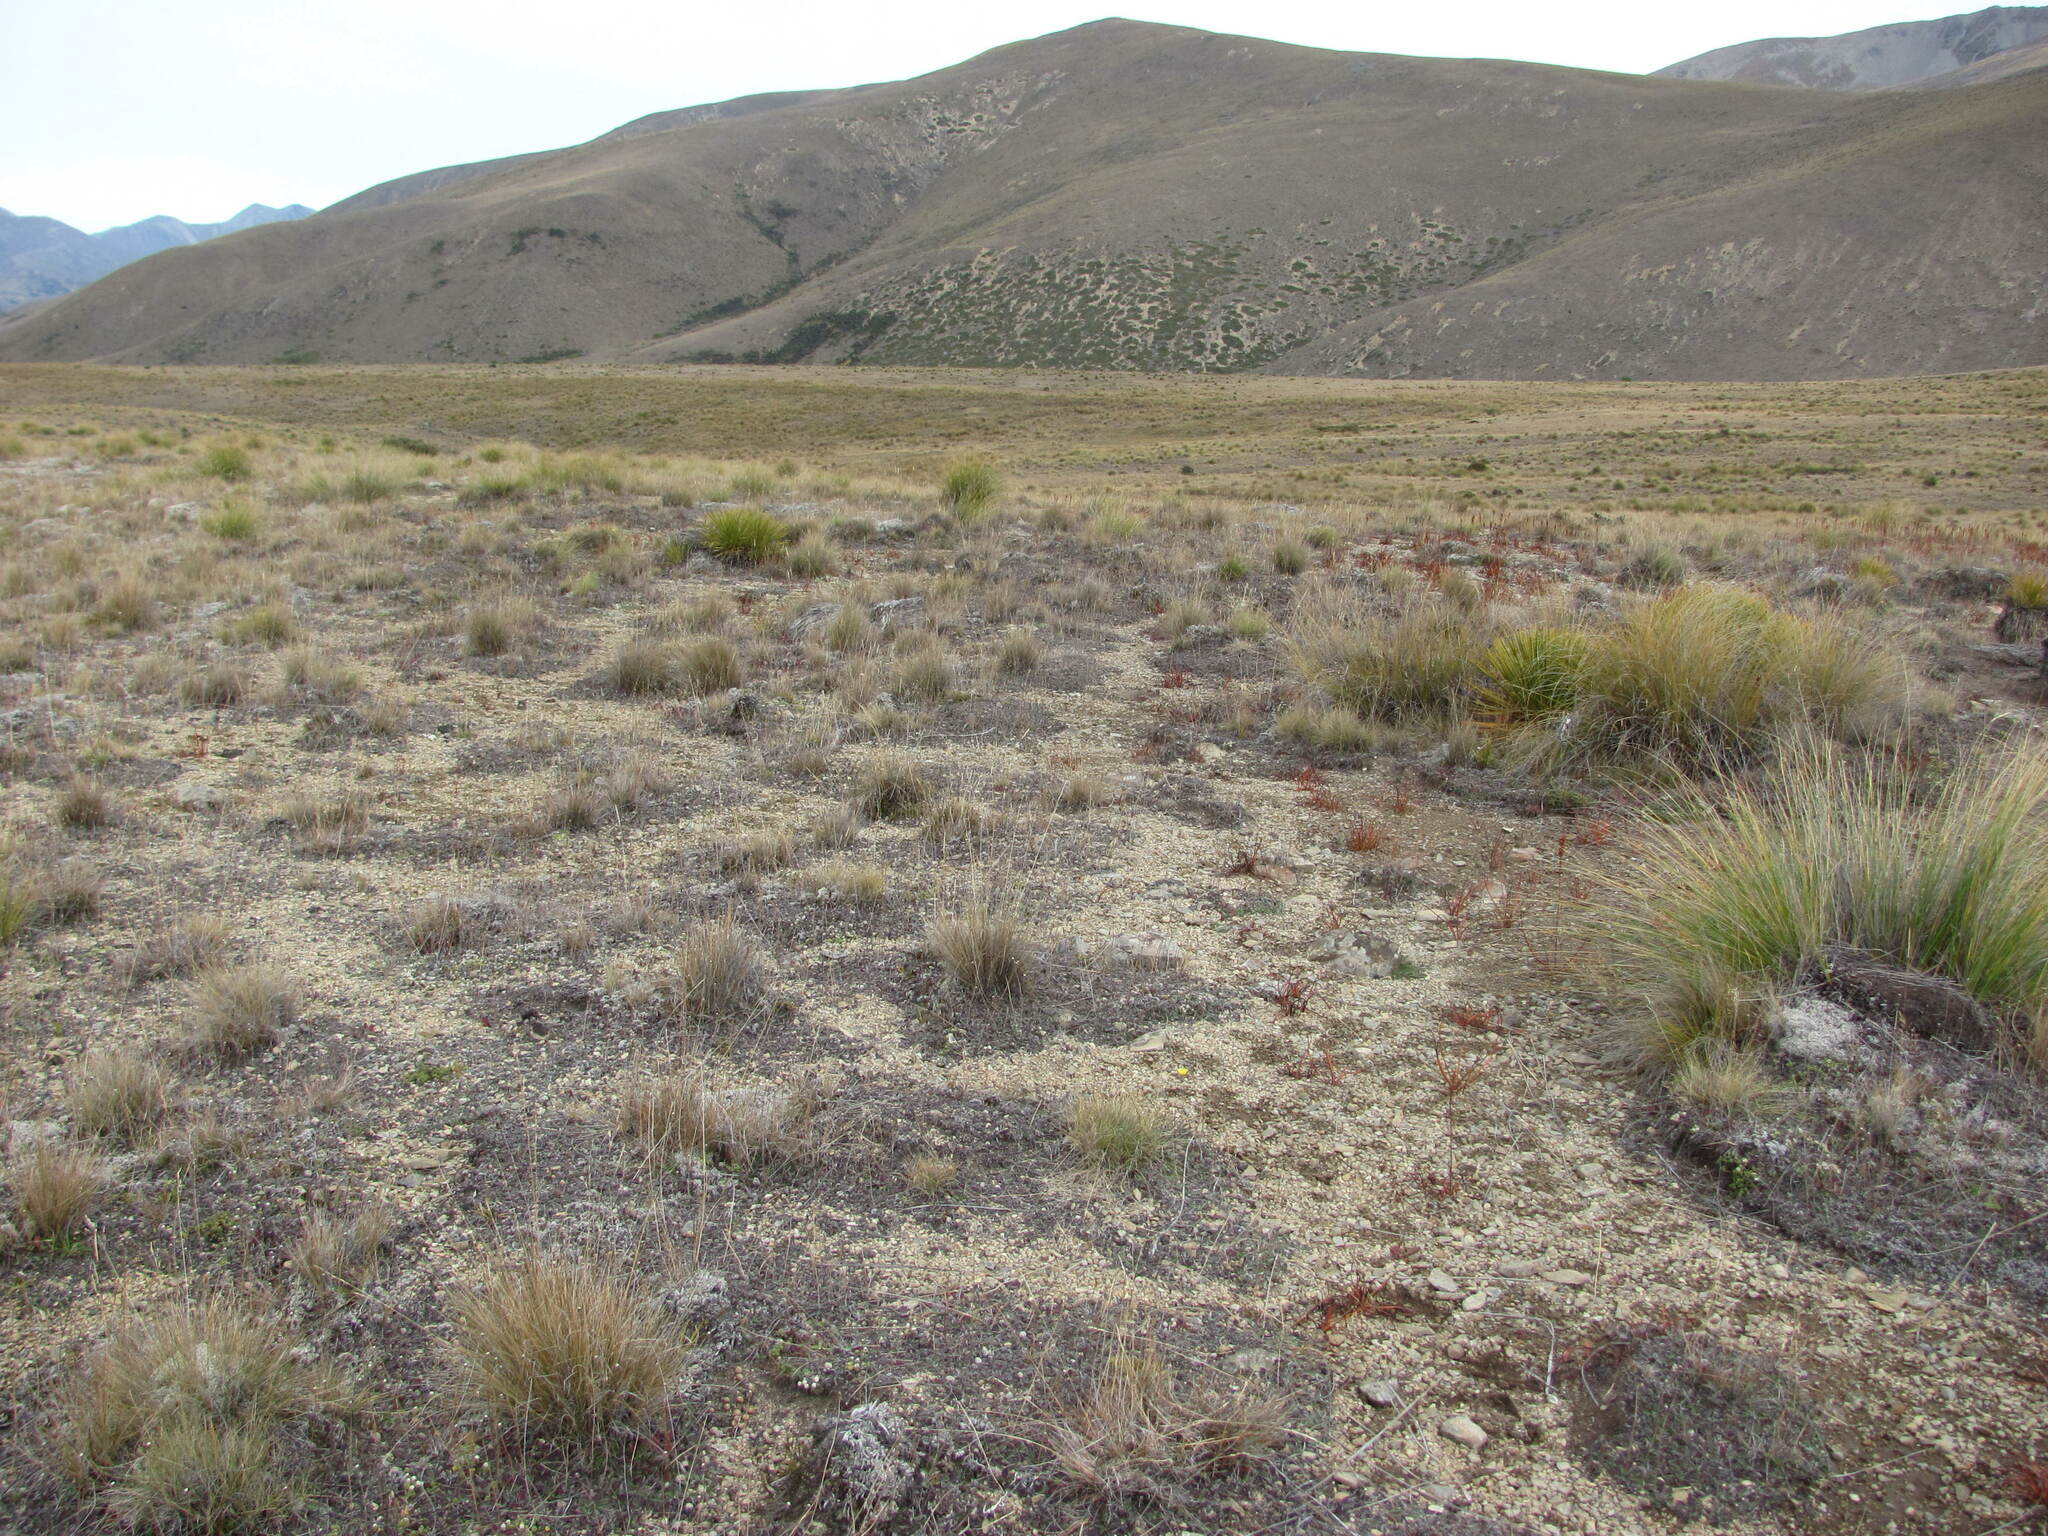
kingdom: Plantae
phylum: Tracheophyta
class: Magnoliopsida
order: Asterales
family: Asteraceae
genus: Sonchus
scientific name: Sonchus novae-zelandiae
